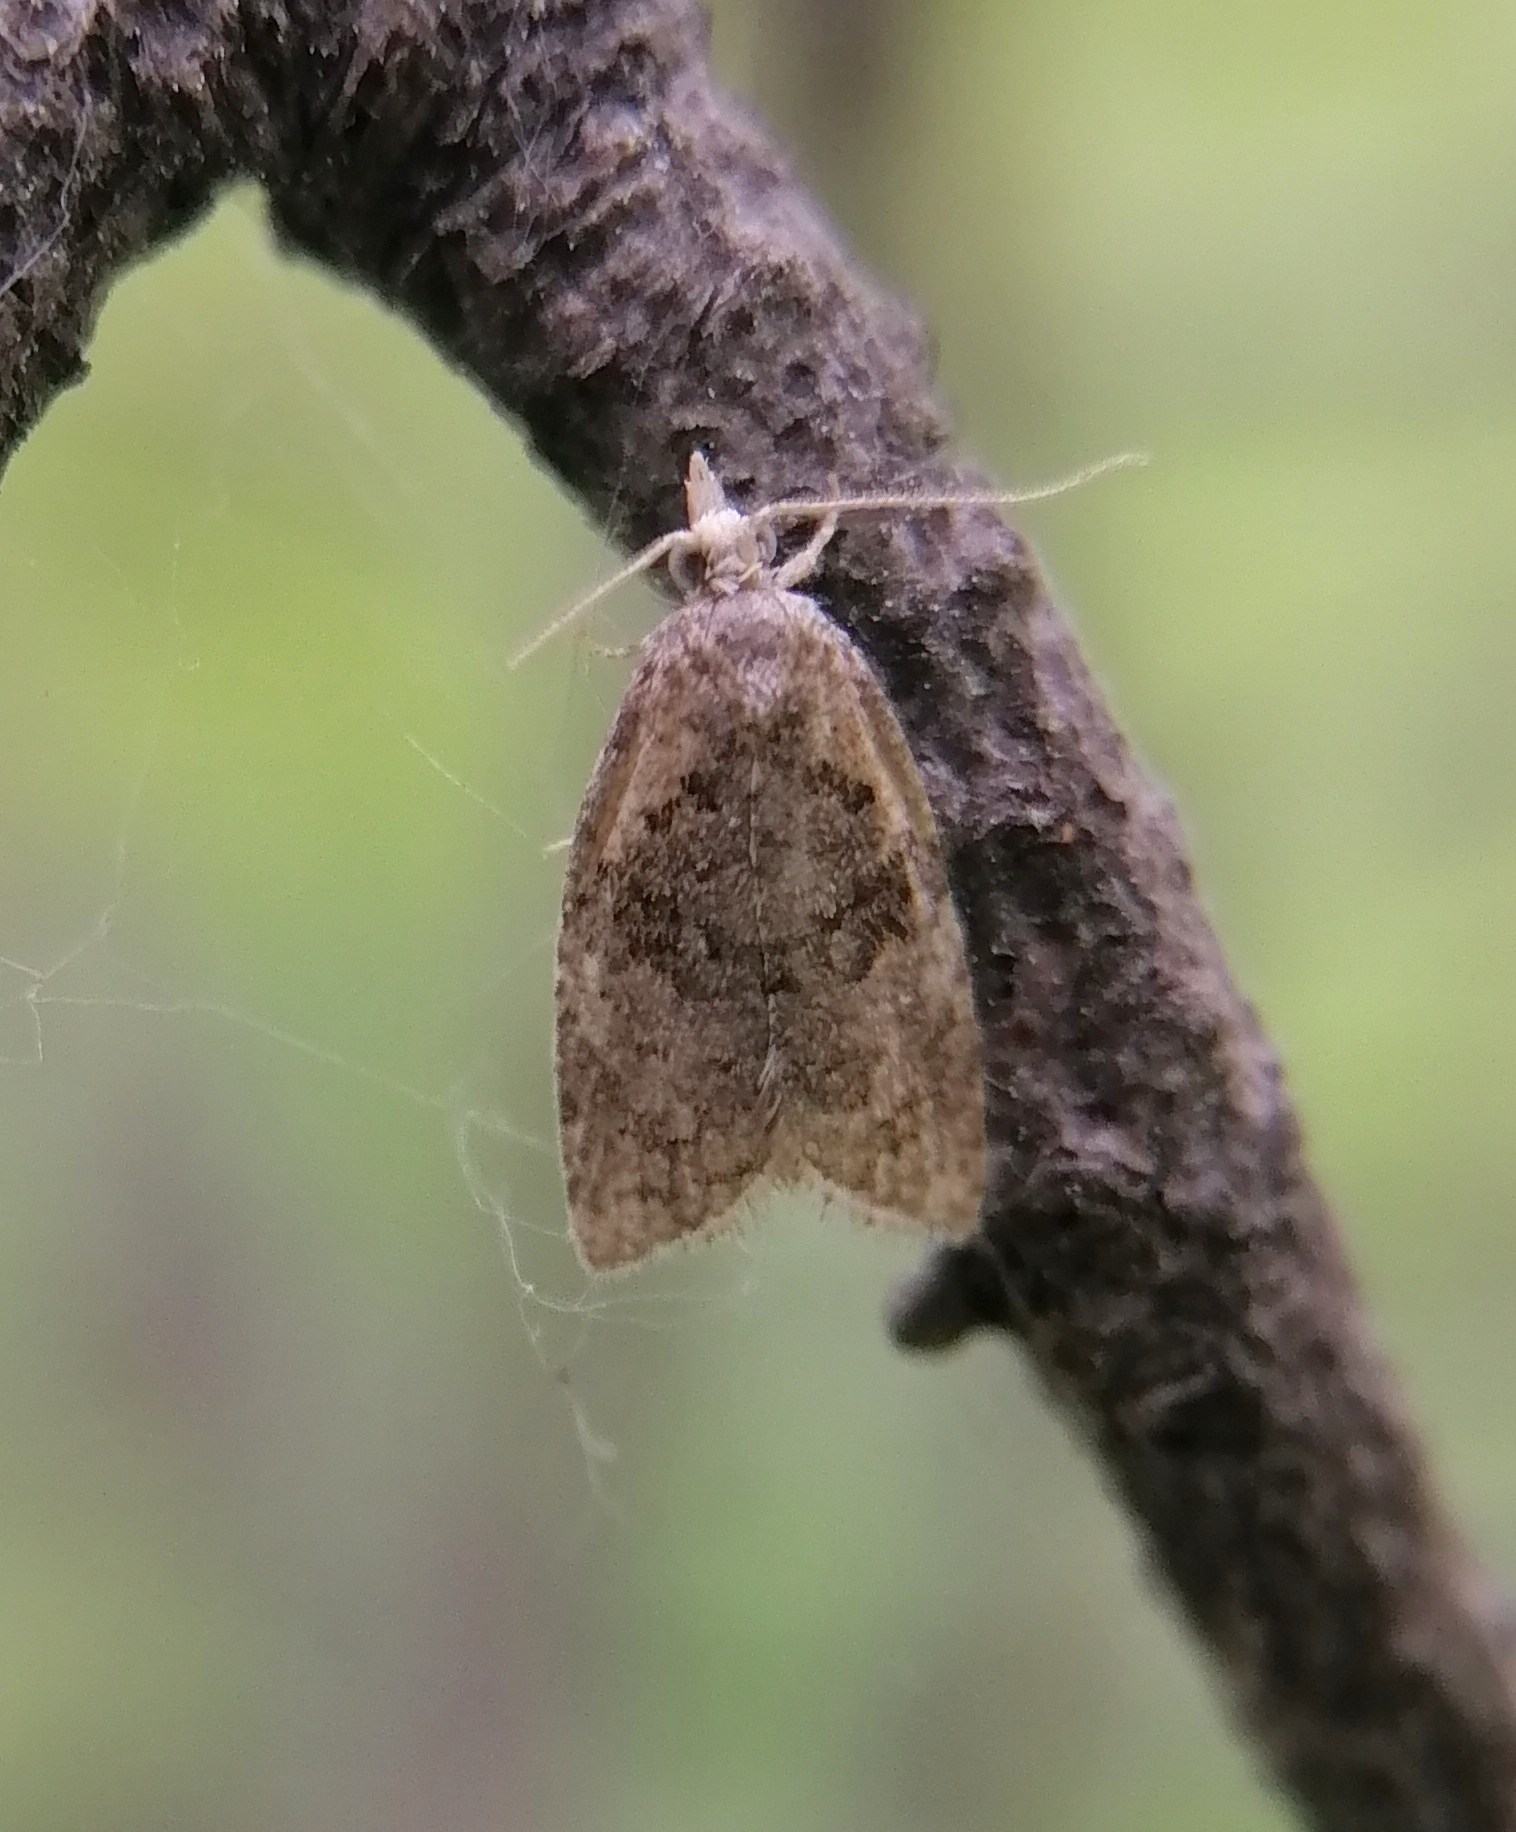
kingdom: Animalia
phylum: Arthropoda
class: Insecta
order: Lepidoptera
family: Tortricidae
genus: Capua
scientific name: Capua vulgana
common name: Common twist
